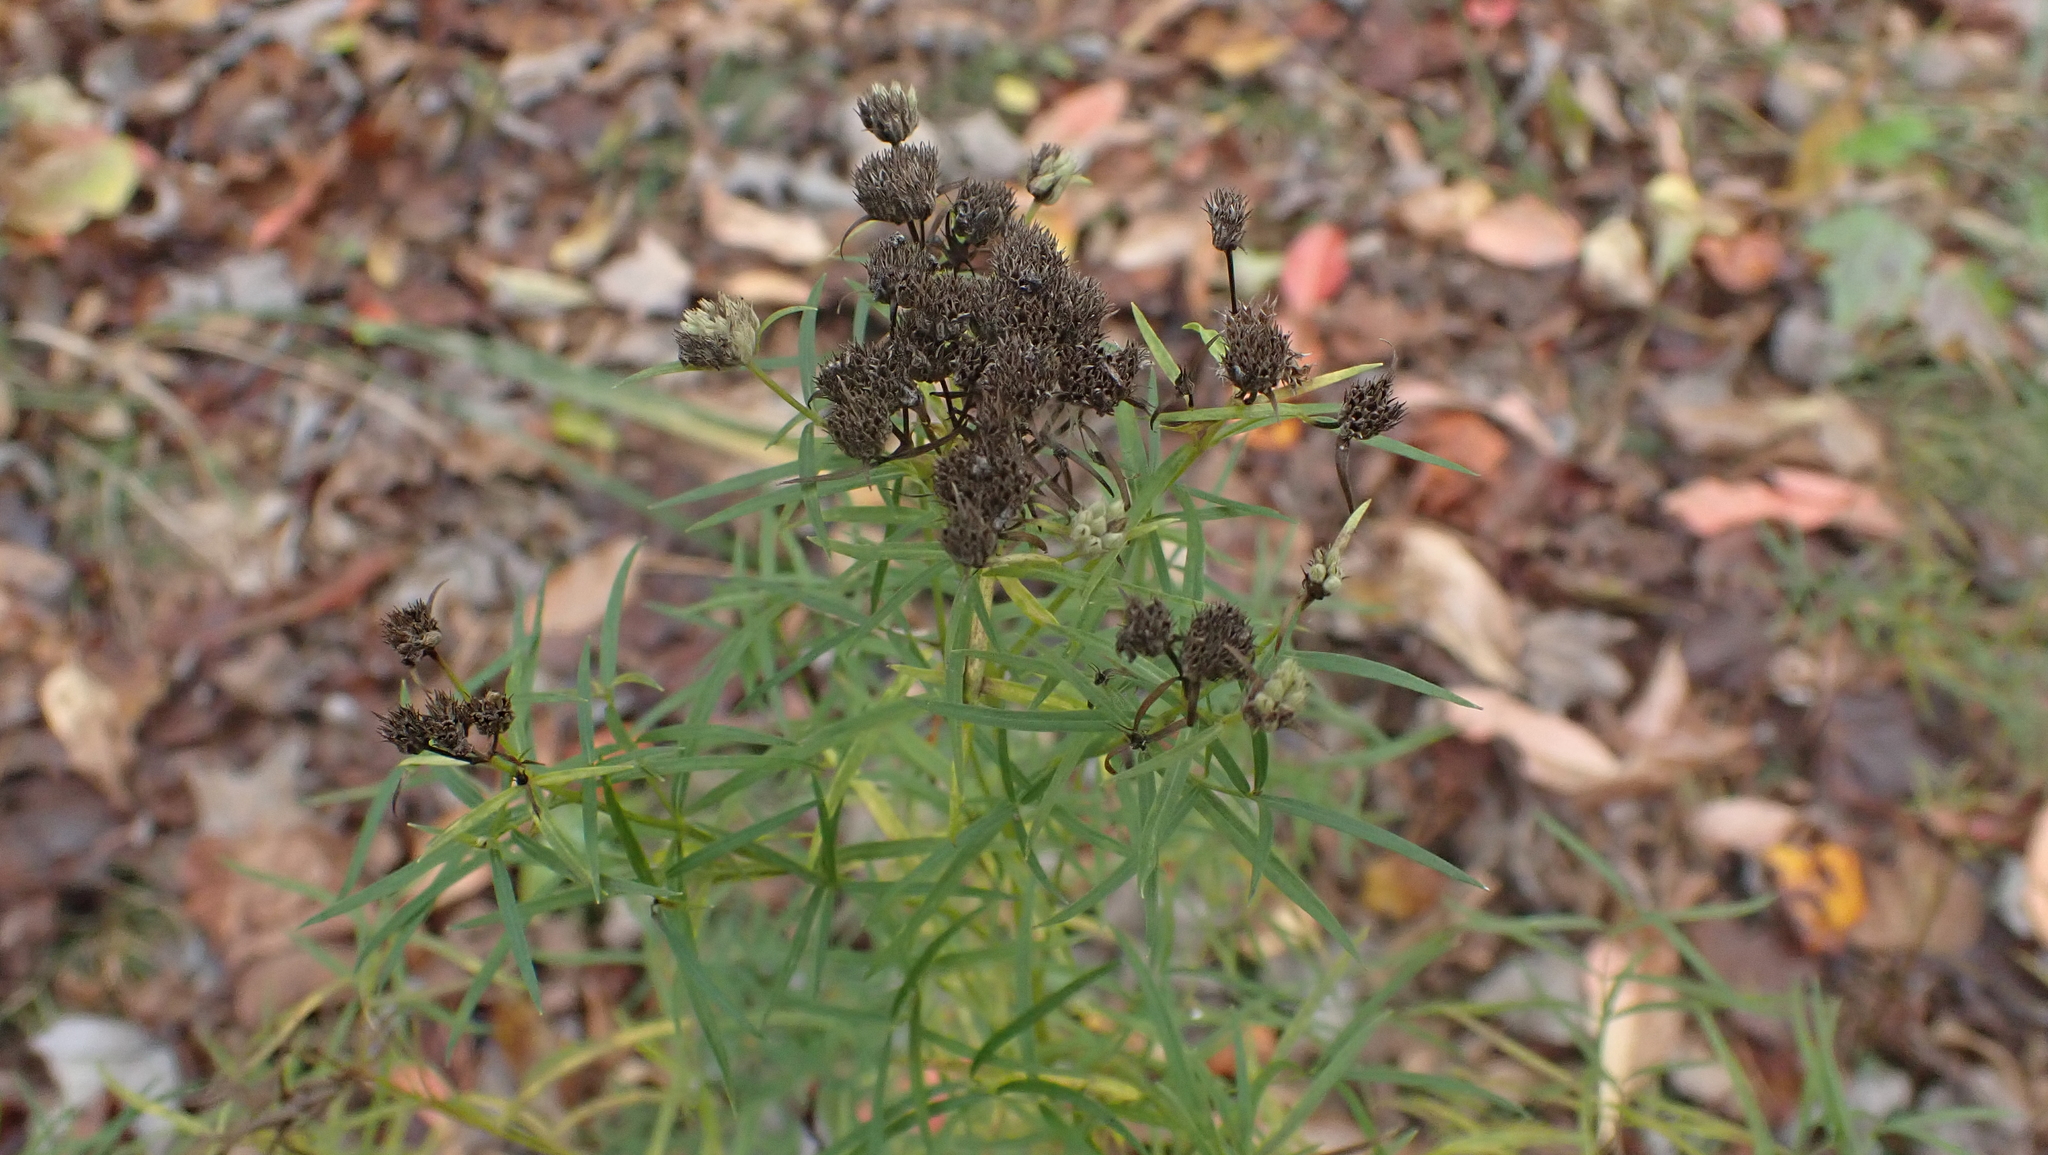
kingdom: Plantae
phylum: Tracheophyta
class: Magnoliopsida
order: Lamiales
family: Lamiaceae
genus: Pycnanthemum
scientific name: Pycnanthemum tenuifolium
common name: Narrow-leaf mountain-mint
